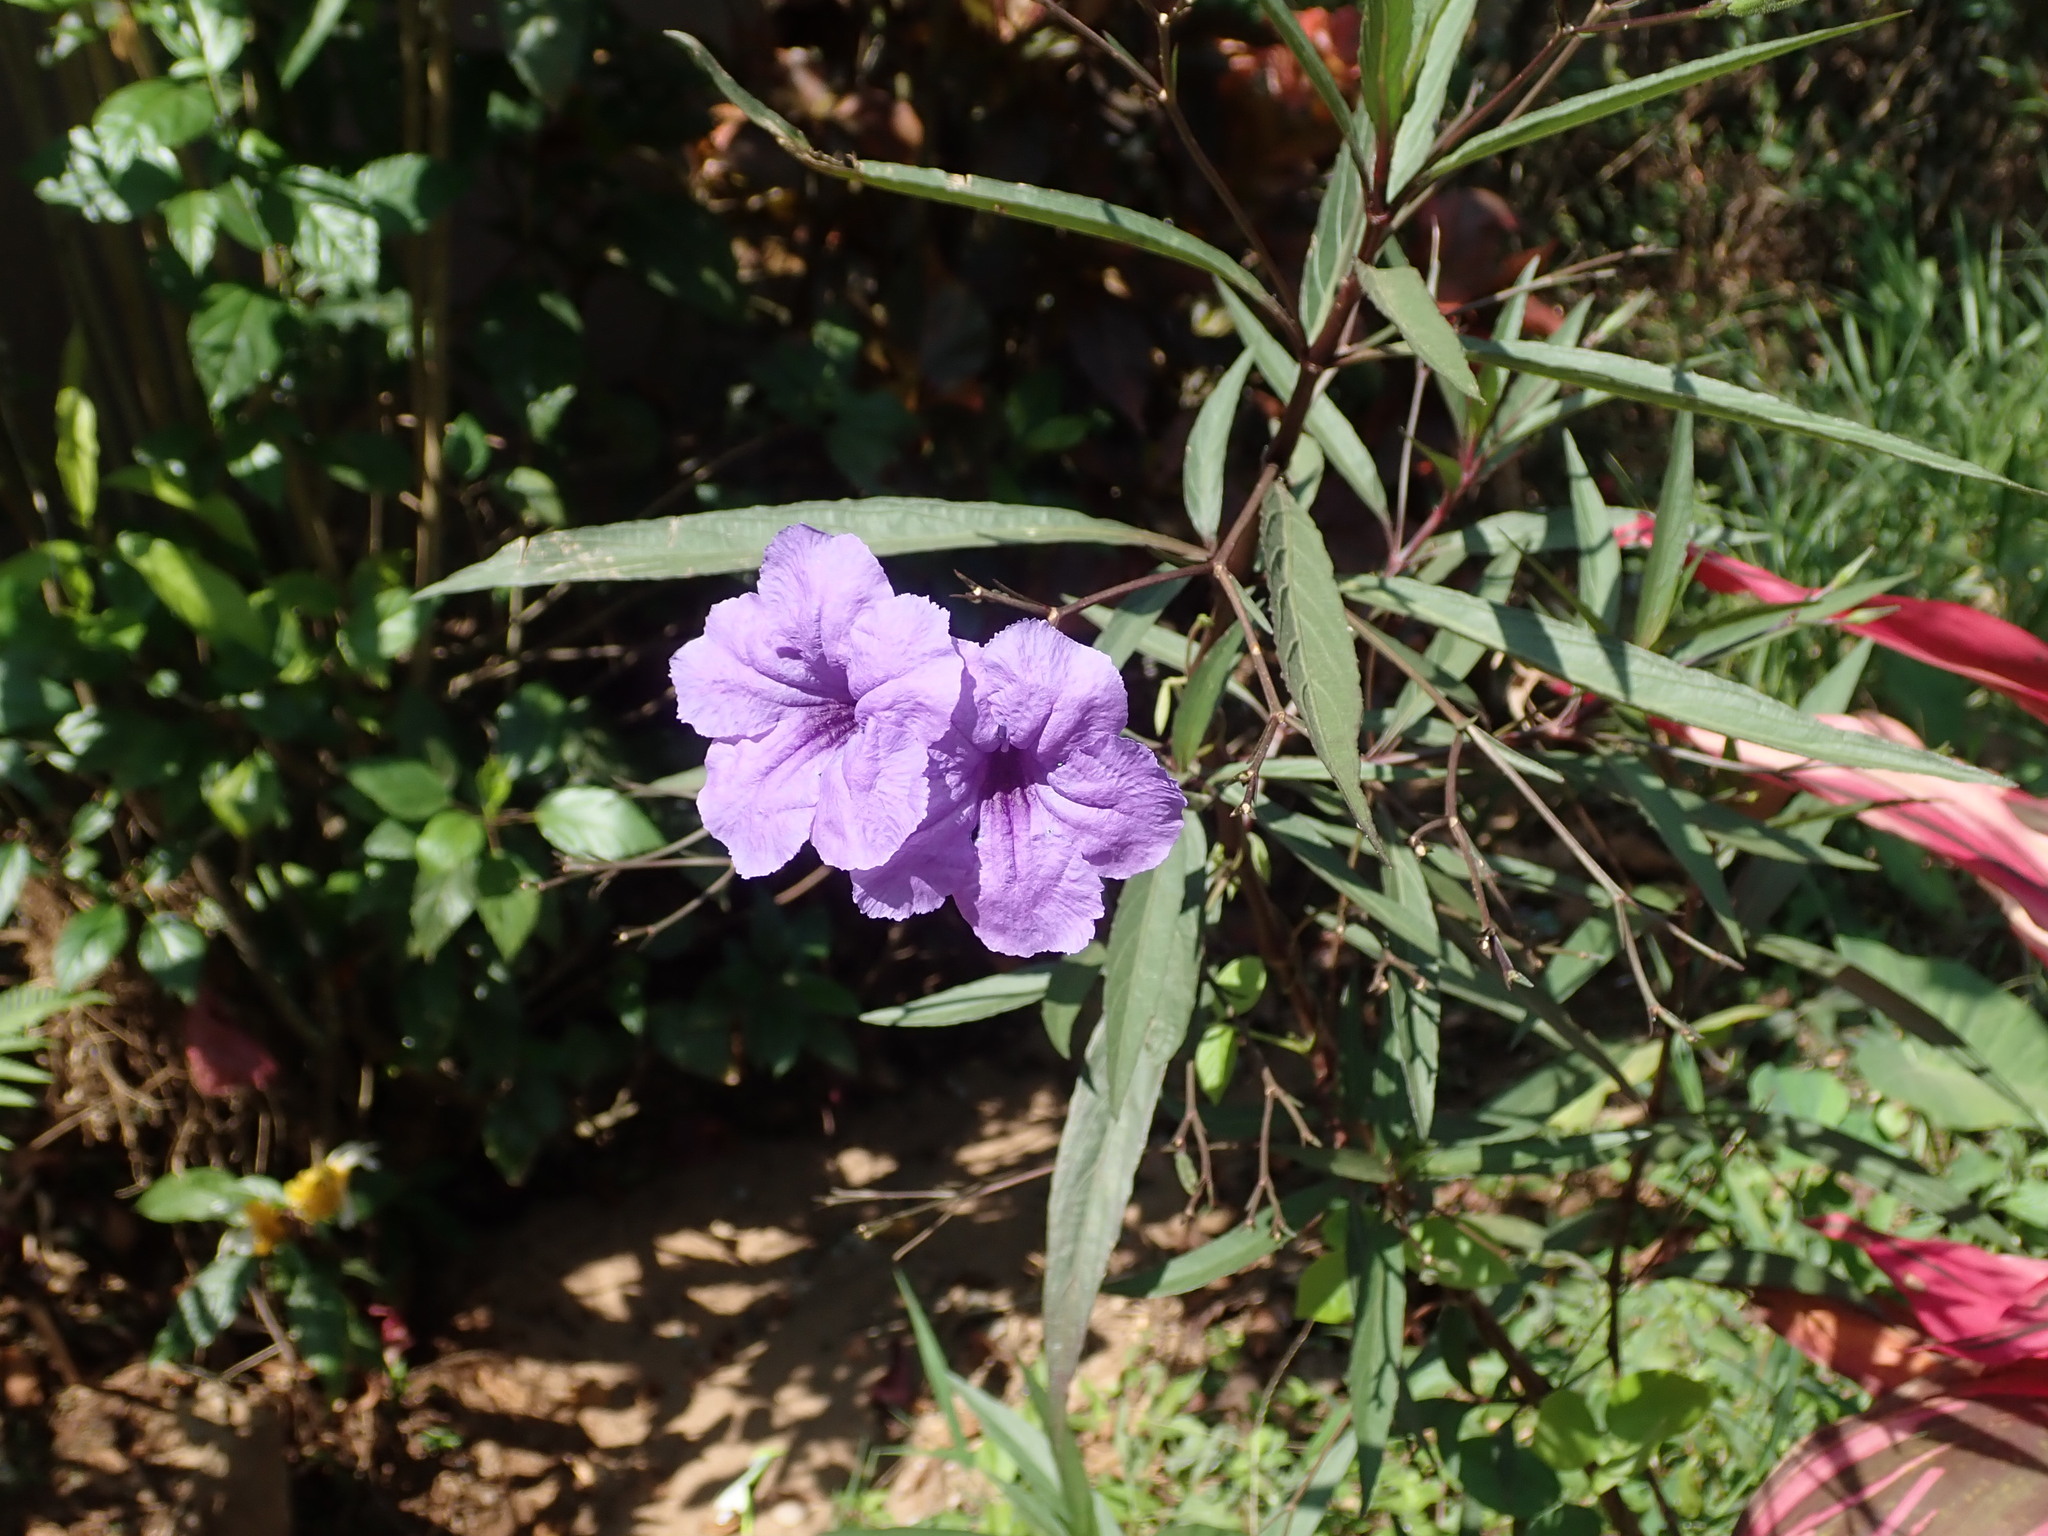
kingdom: Plantae
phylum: Tracheophyta
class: Magnoliopsida
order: Lamiales
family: Acanthaceae
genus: Ruellia
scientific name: Ruellia simplex
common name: Softseed wild petunia
